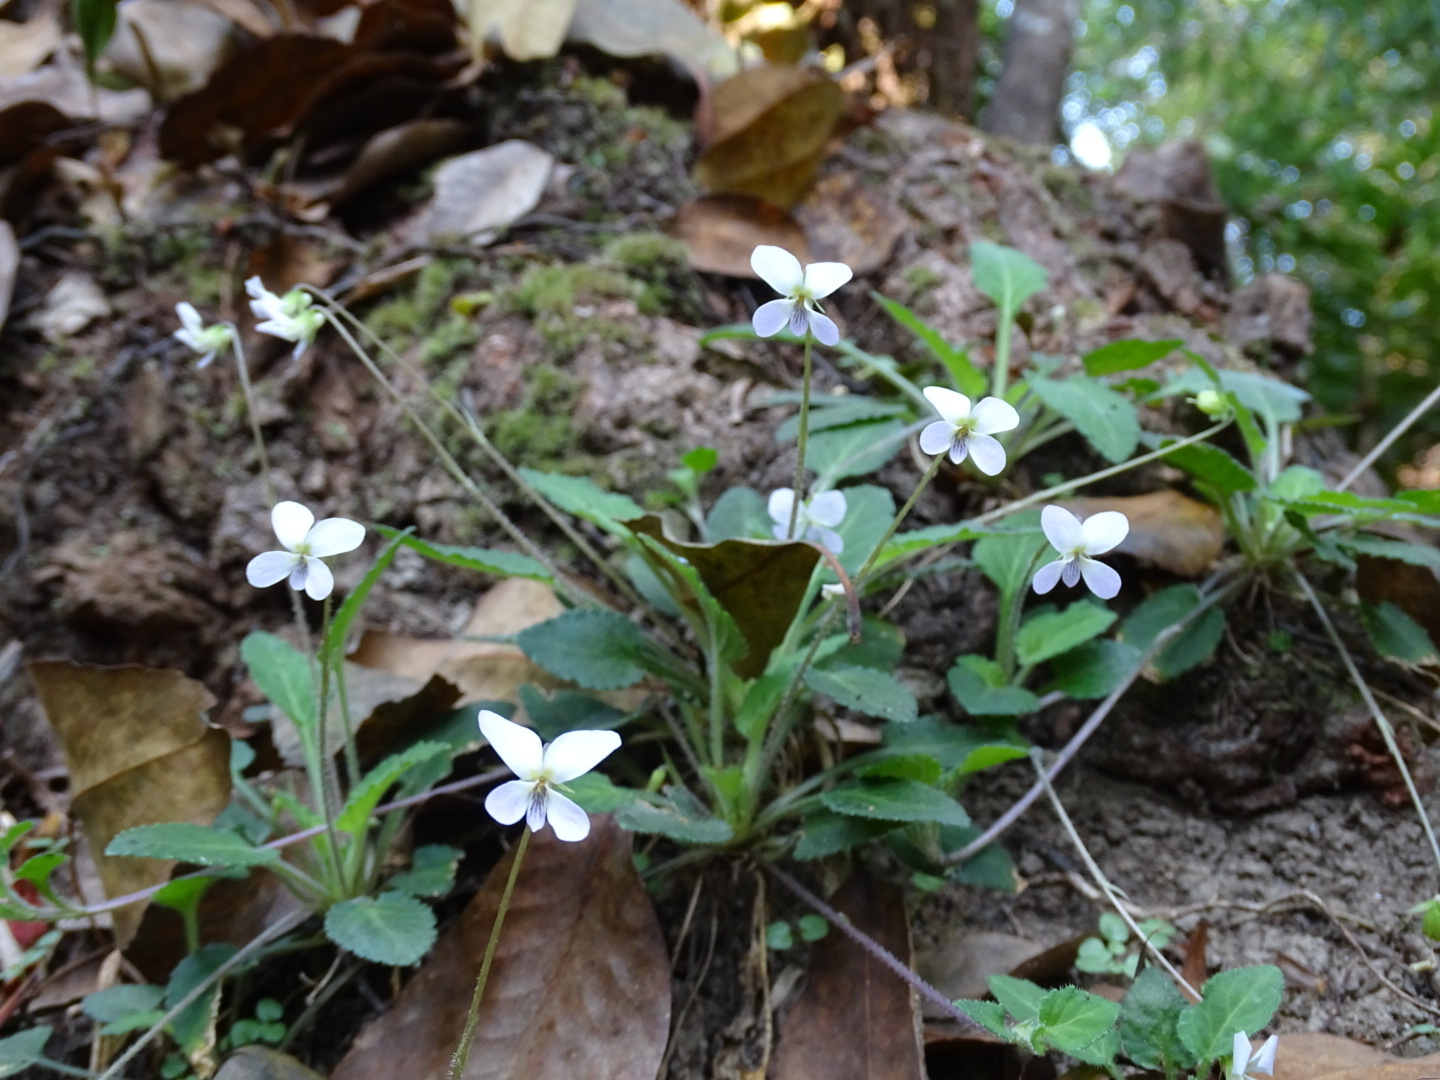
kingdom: Plantae
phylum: Tracheophyta
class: Magnoliopsida
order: Malpighiales
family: Violaceae
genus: Viola
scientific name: Viola diffusa
